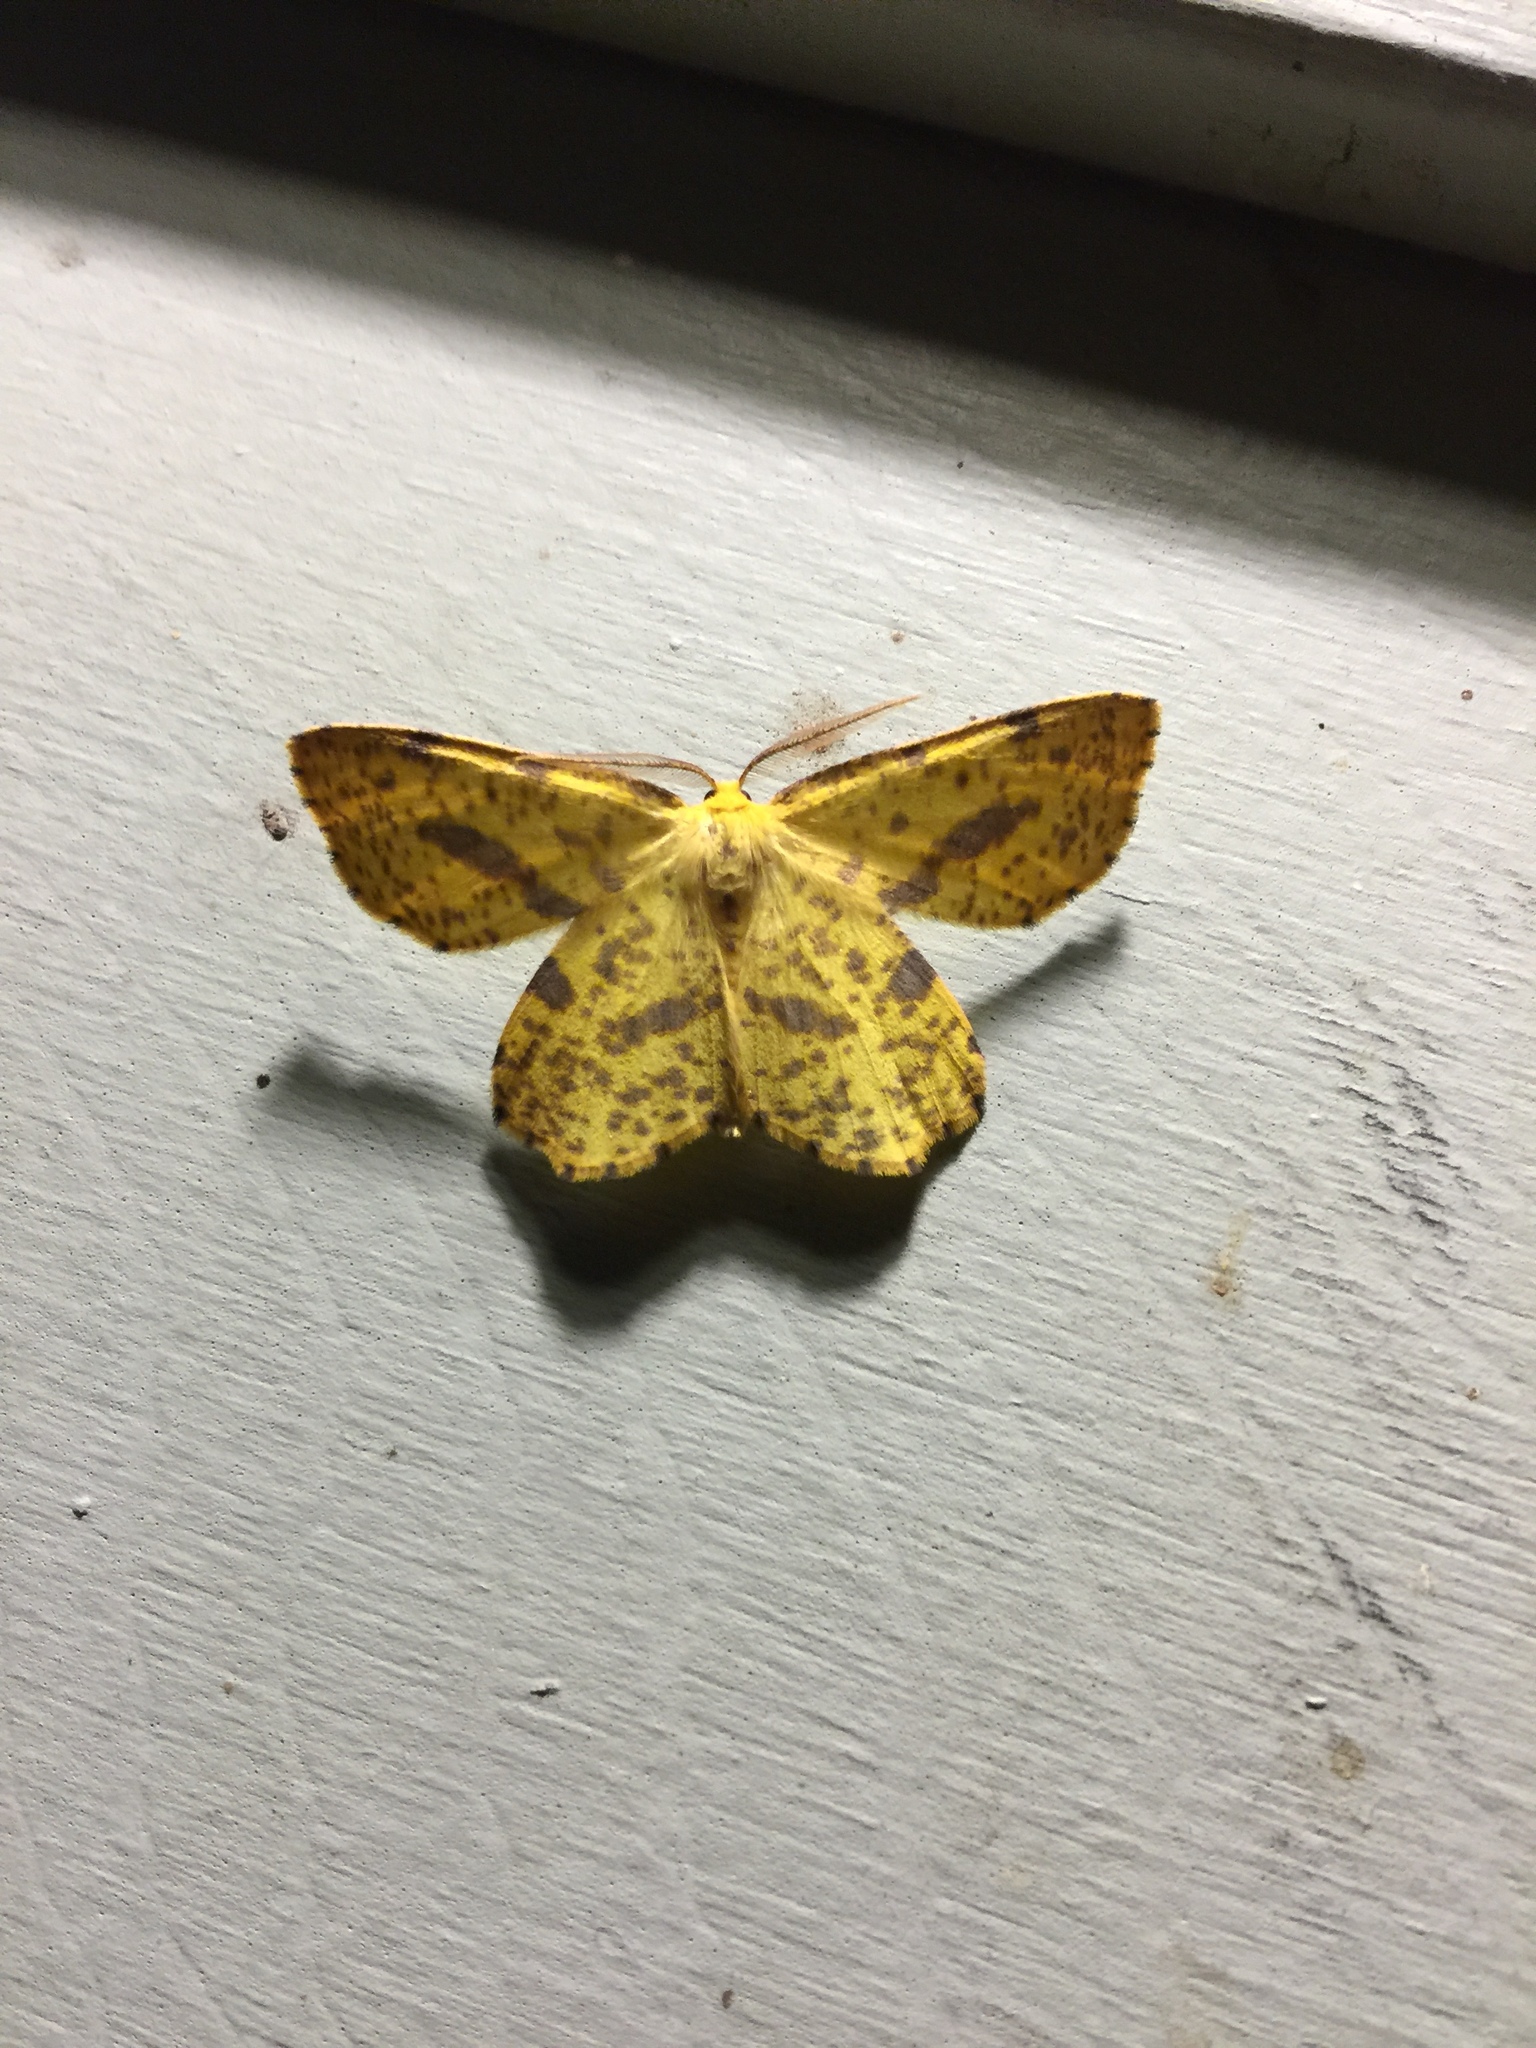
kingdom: Animalia
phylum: Arthropoda
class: Insecta
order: Lepidoptera
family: Geometridae
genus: Xanthotype
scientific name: Xanthotype
